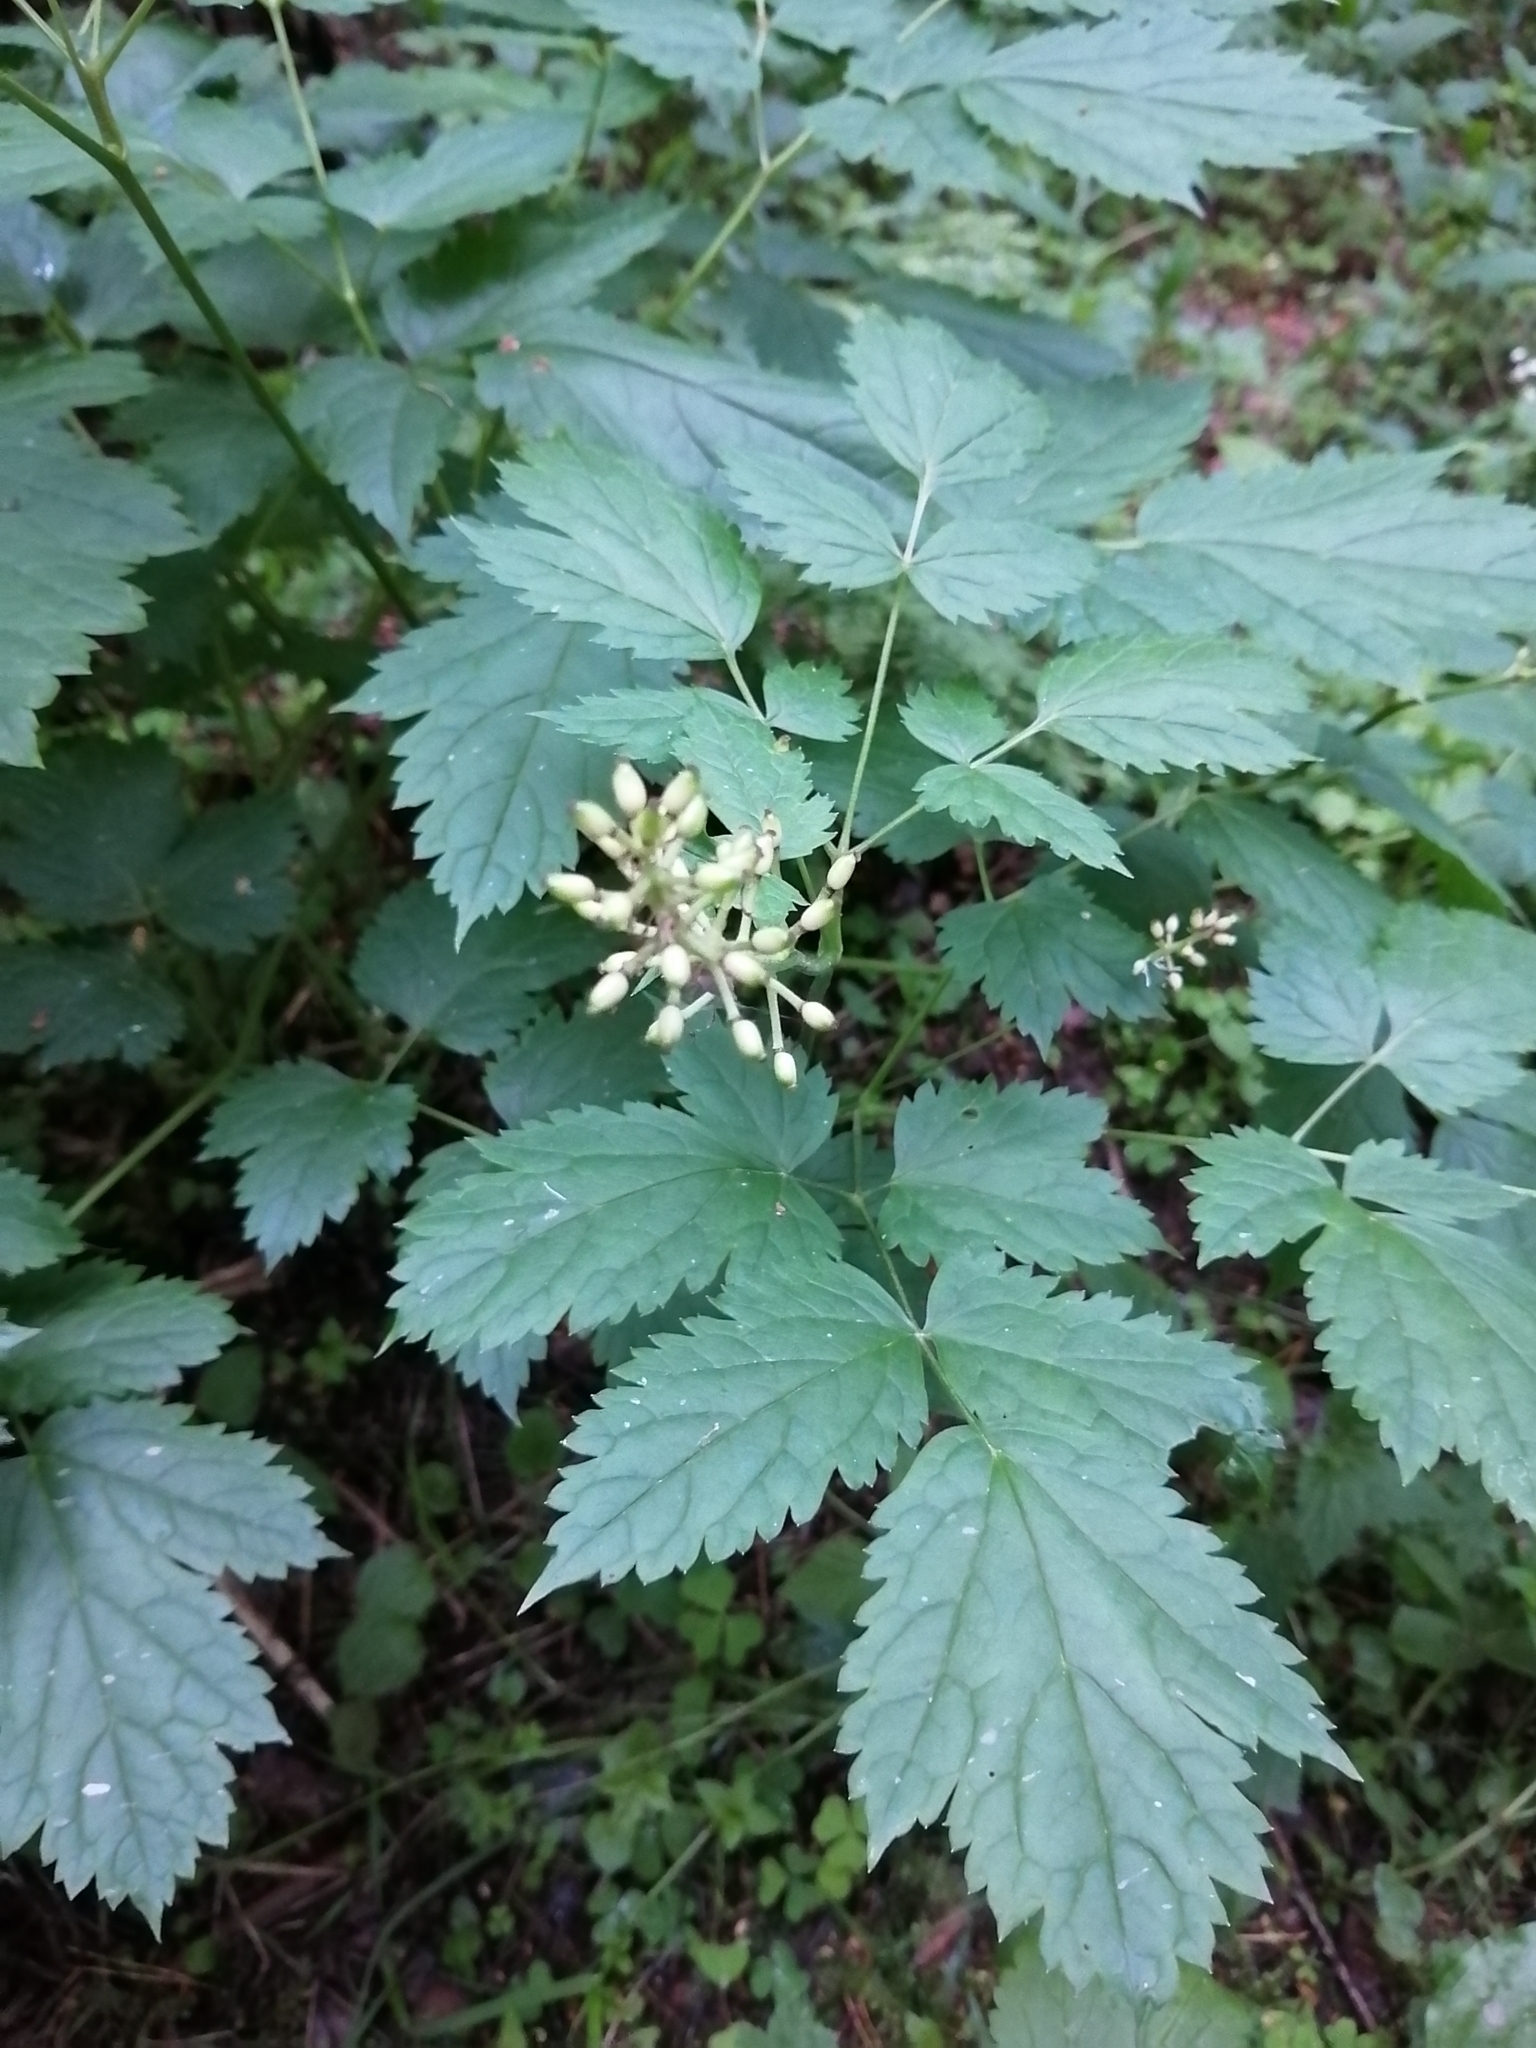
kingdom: Plantae
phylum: Tracheophyta
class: Magnoliopsida
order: Ranunculales
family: Ranunculaceae
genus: Actaea
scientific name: Actaea spicata
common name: Baneberry
